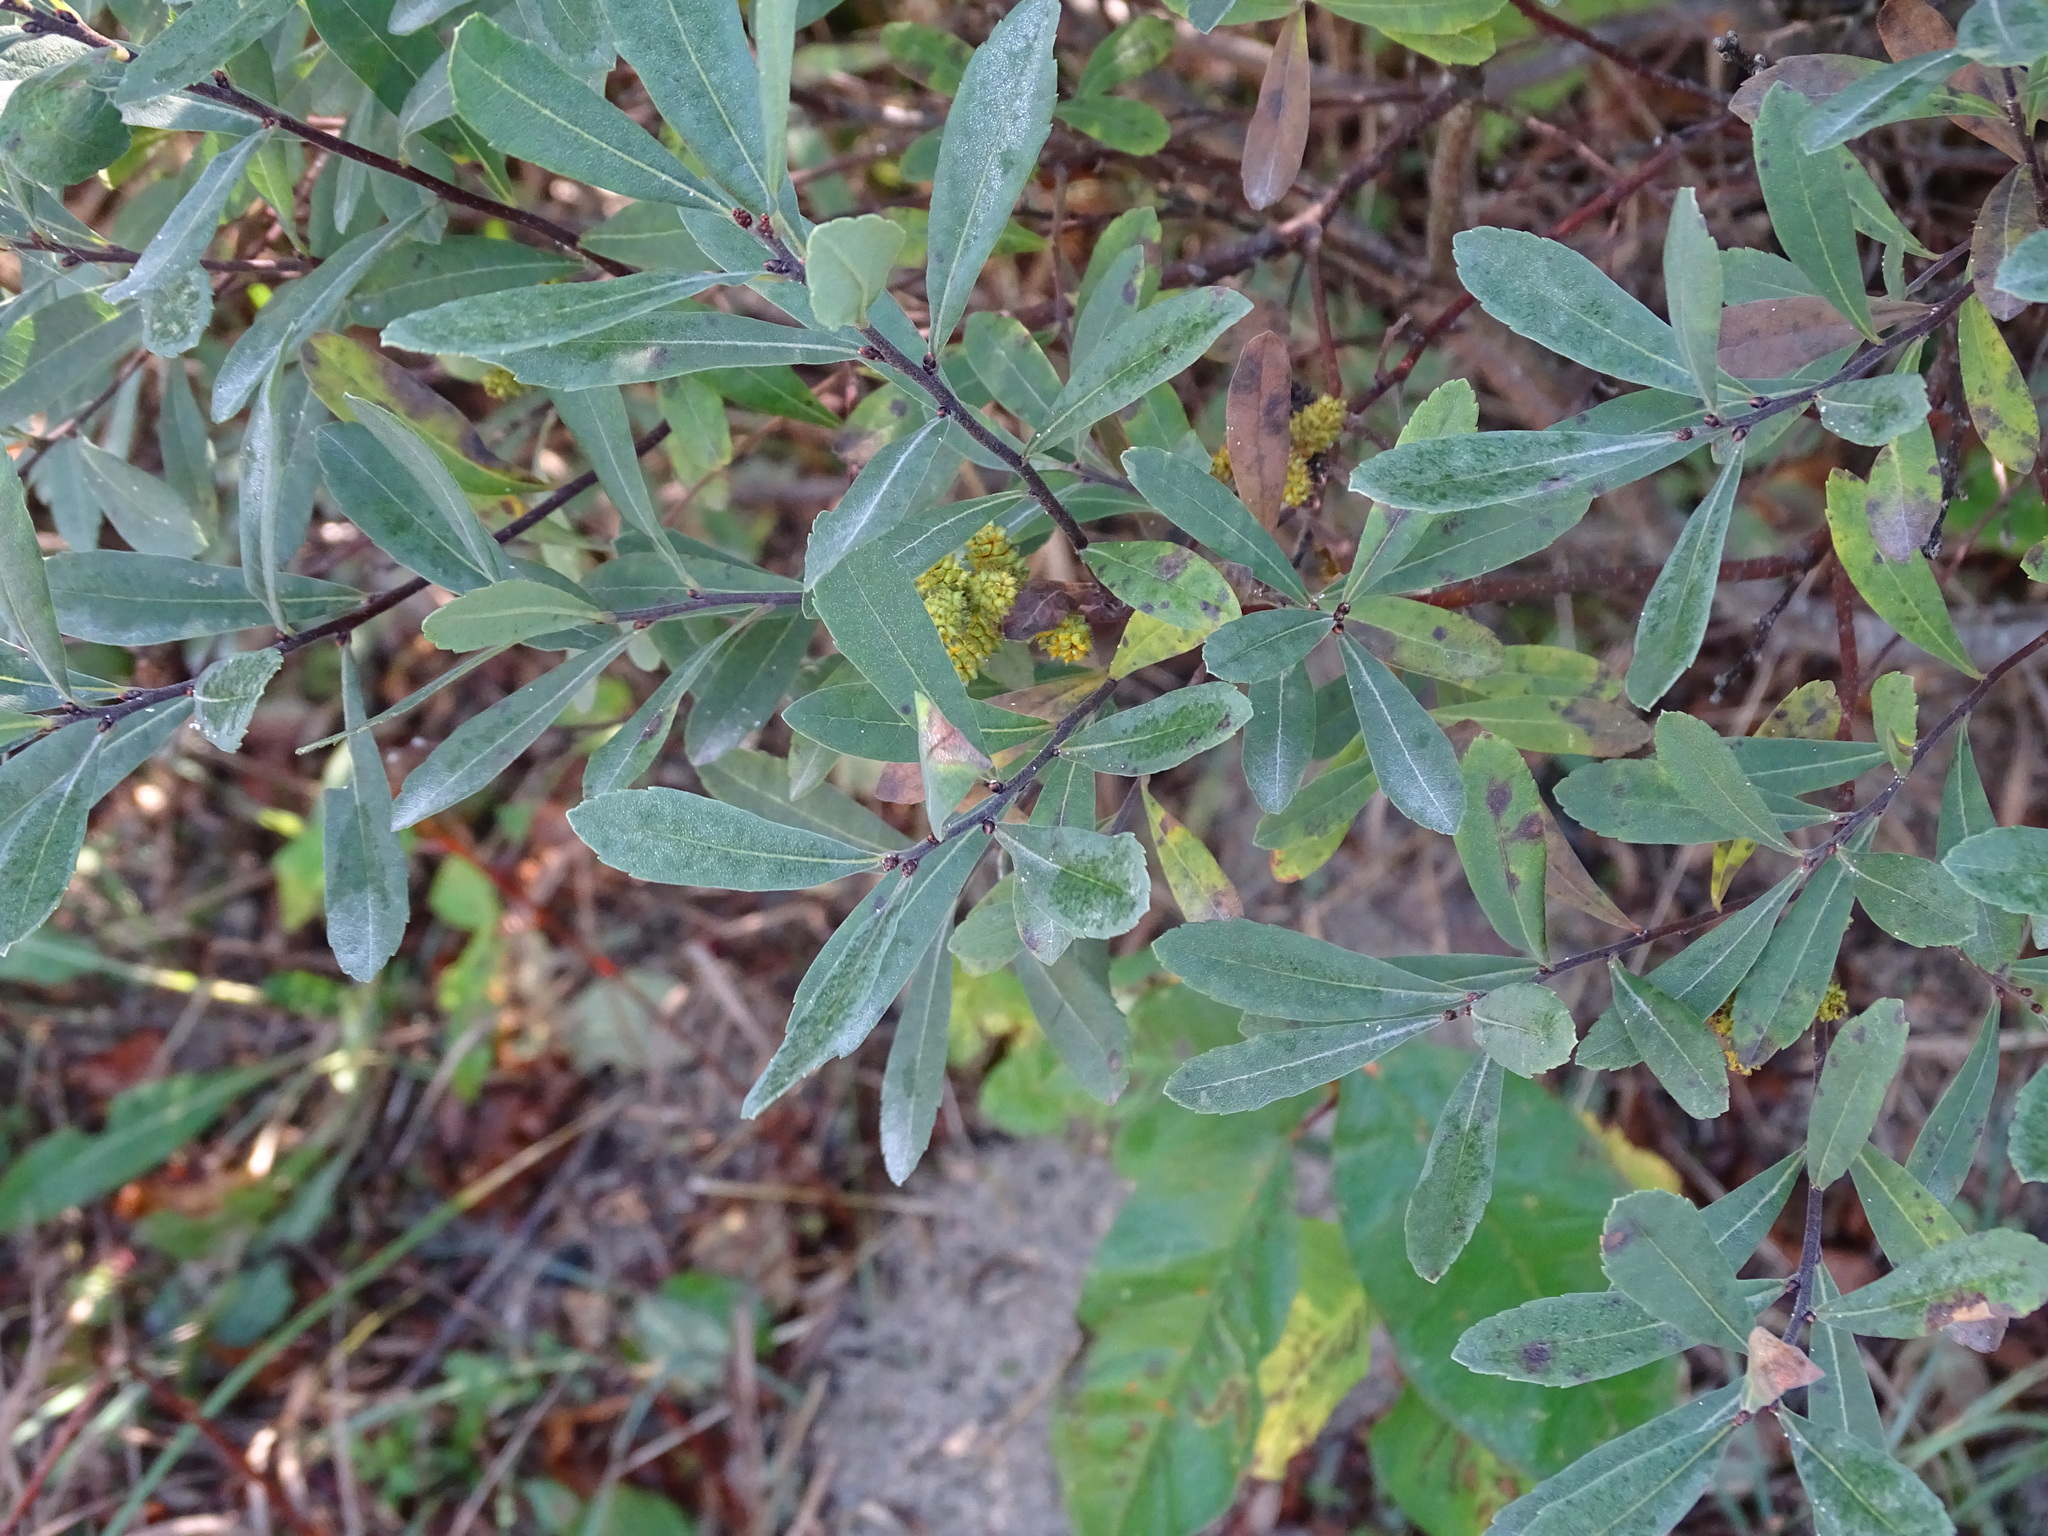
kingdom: Plantae
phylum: Tracheophyta
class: Magnoliopsida
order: Fagales
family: Myricaceae
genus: Myrica
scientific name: Myrica gale
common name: Sweet gale
